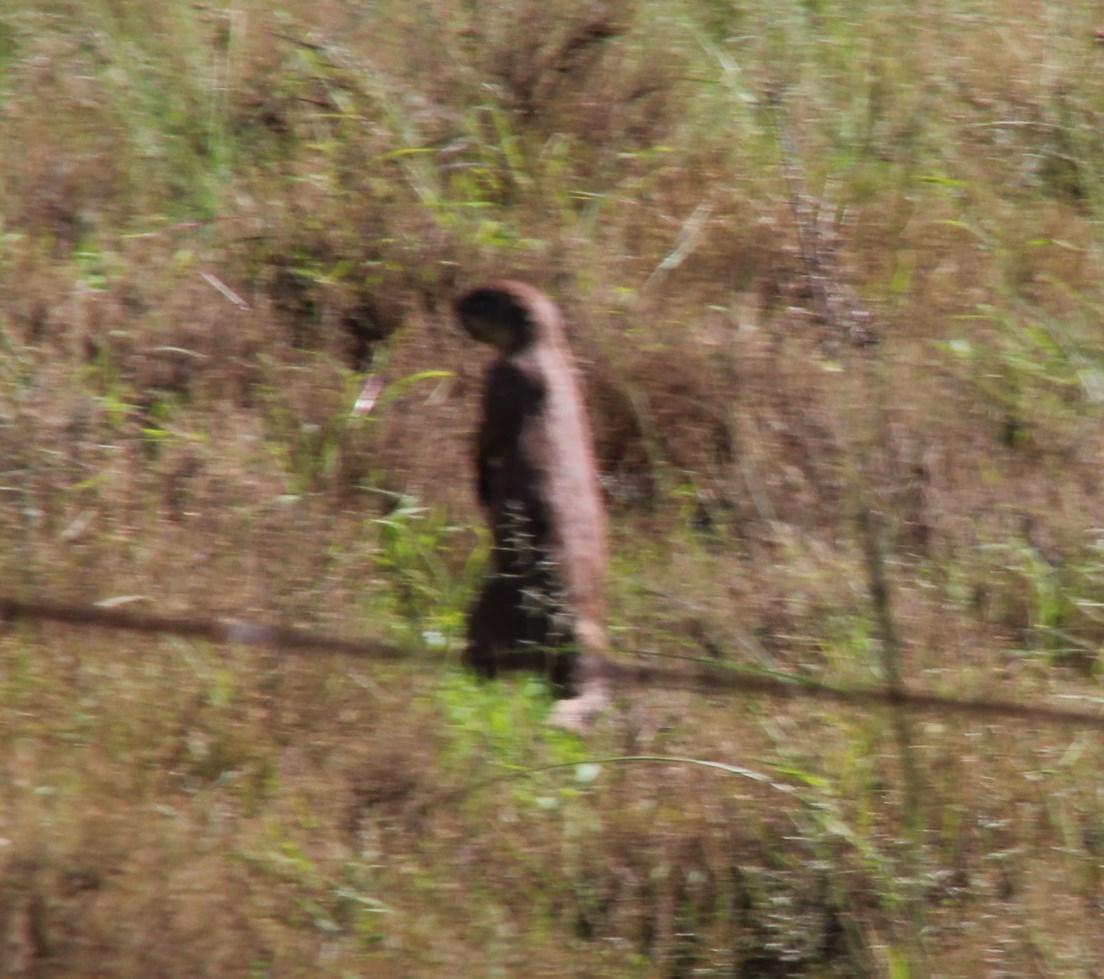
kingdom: Animalia
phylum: Chordata
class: Mammalia
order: Rodentia
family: Sciuridae
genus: Xerus
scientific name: Xerus inauris
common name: South african ground squirrel
